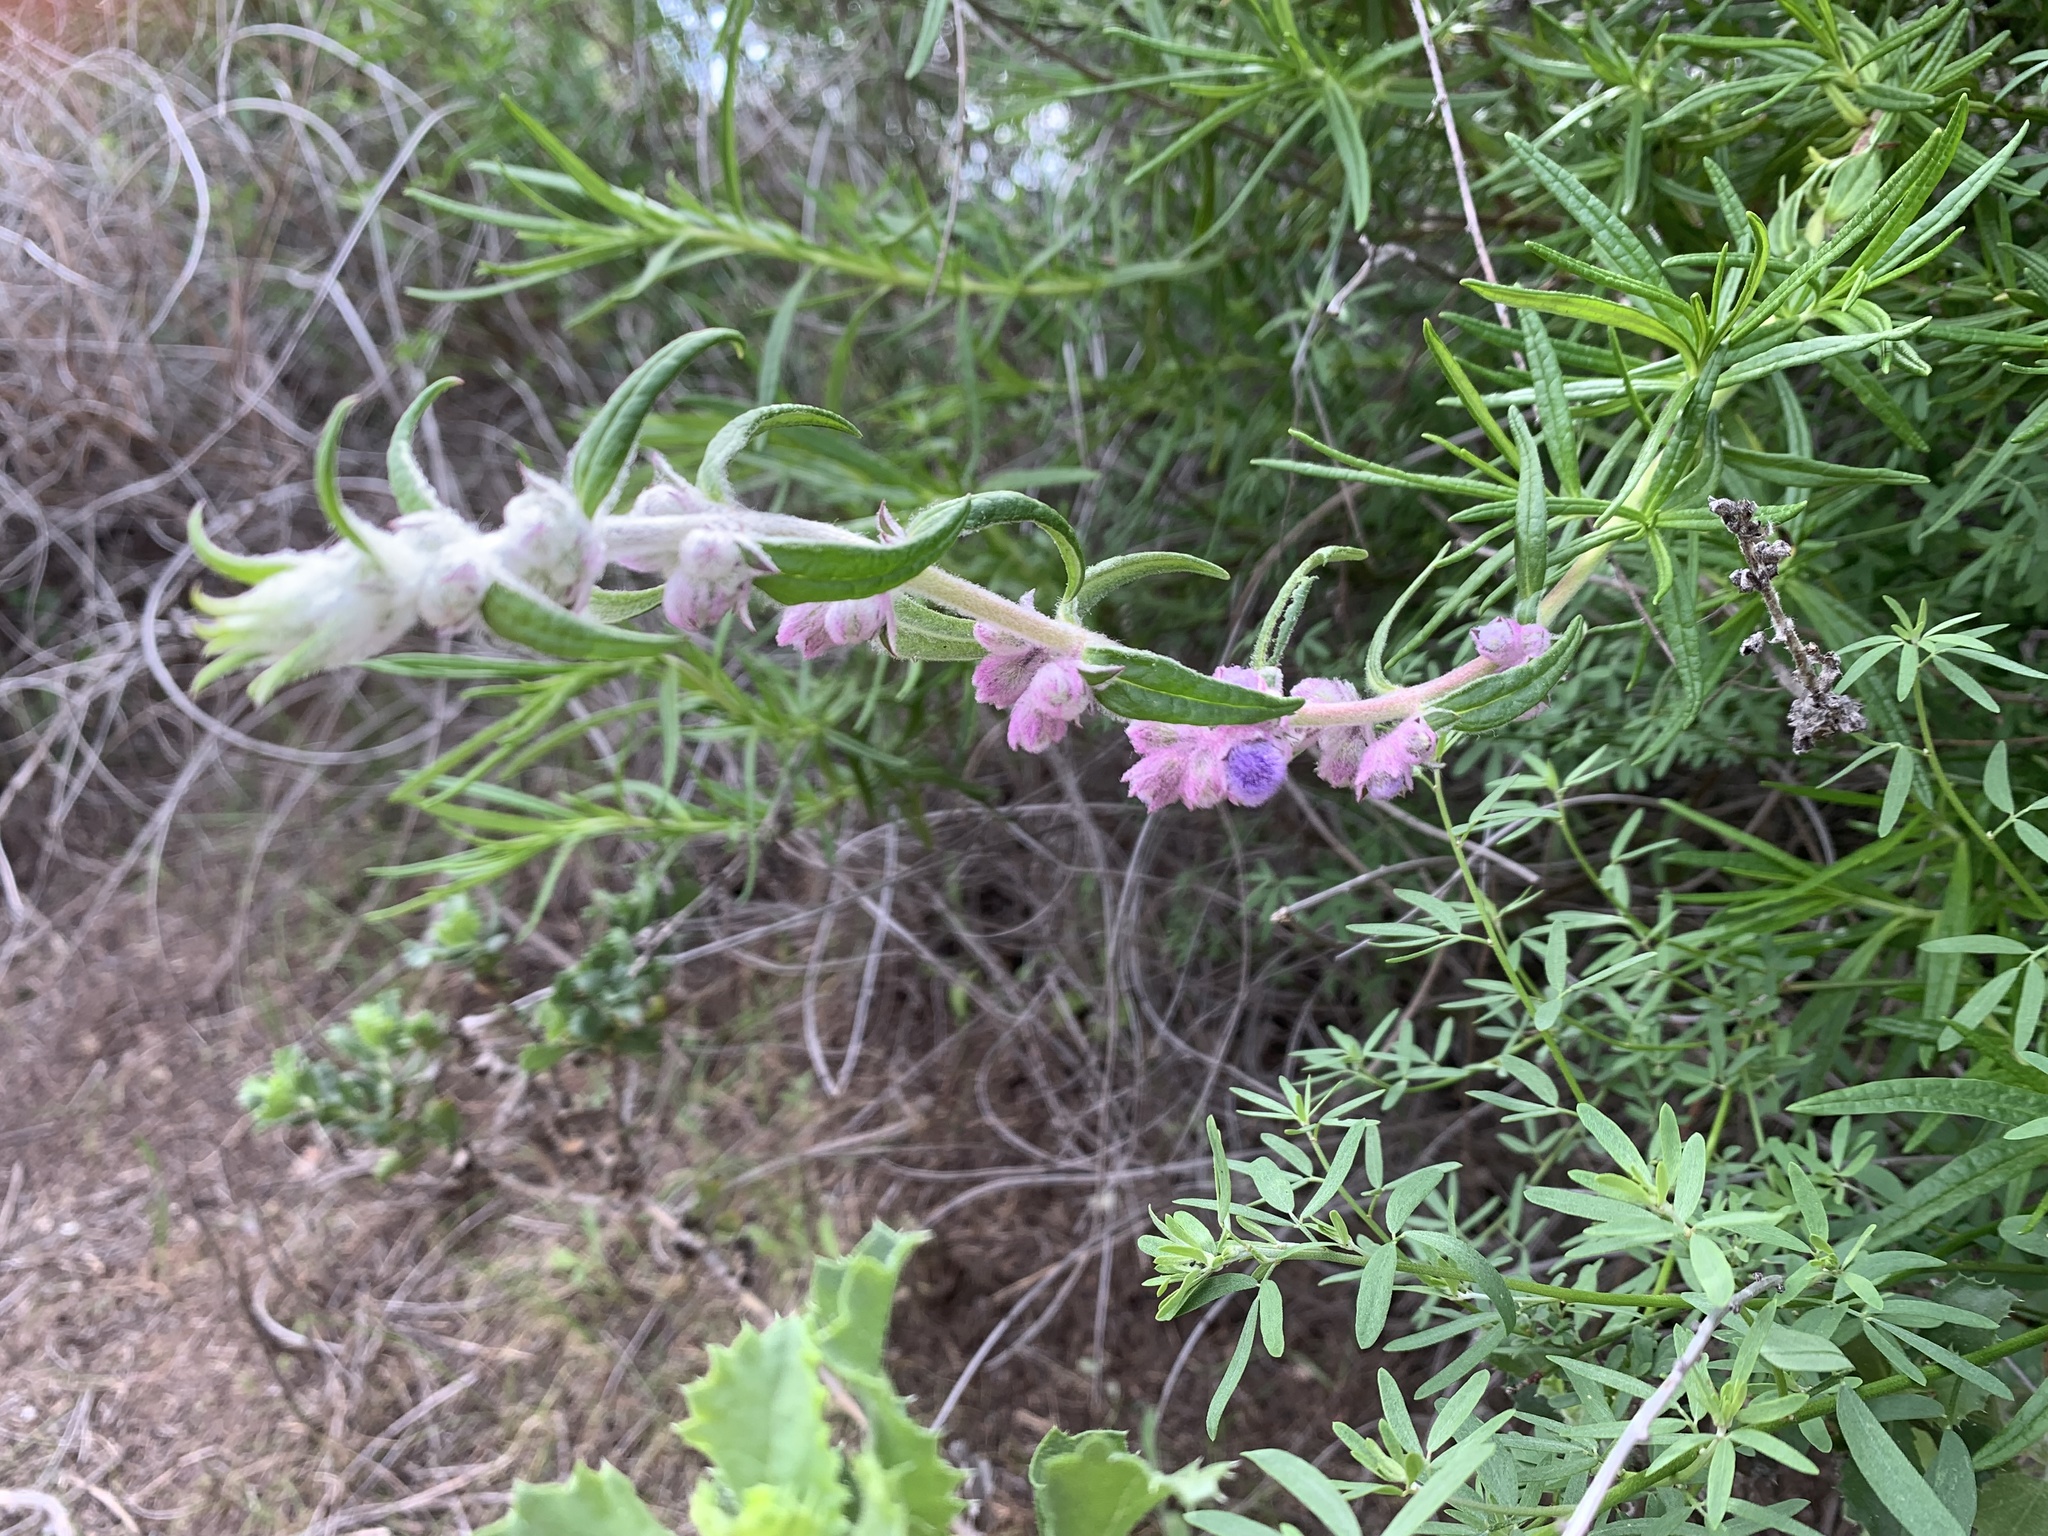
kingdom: Plantae
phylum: Tracheophyta
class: Magnoliopsida
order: Lamiales
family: Lamiaceae
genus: Trichostema
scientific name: Trichostema lanatum
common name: Woolly bluecurls
